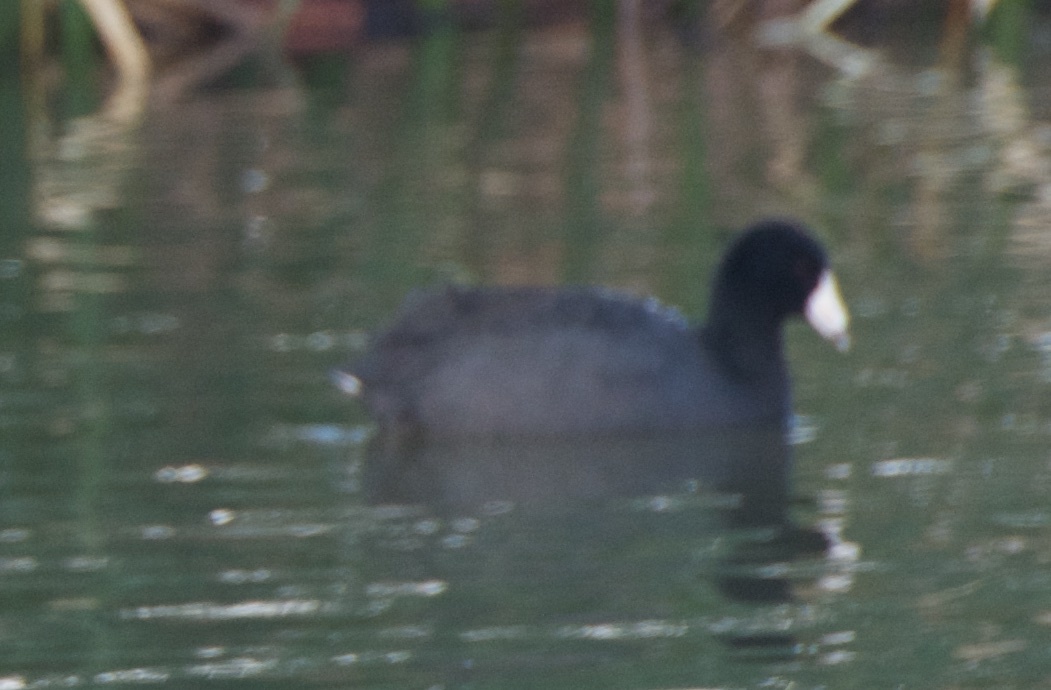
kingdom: Animalia
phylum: Chordata
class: Aves
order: Gruiformes
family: Rallidae
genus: Fulica
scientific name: Fulica americana
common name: American coot
